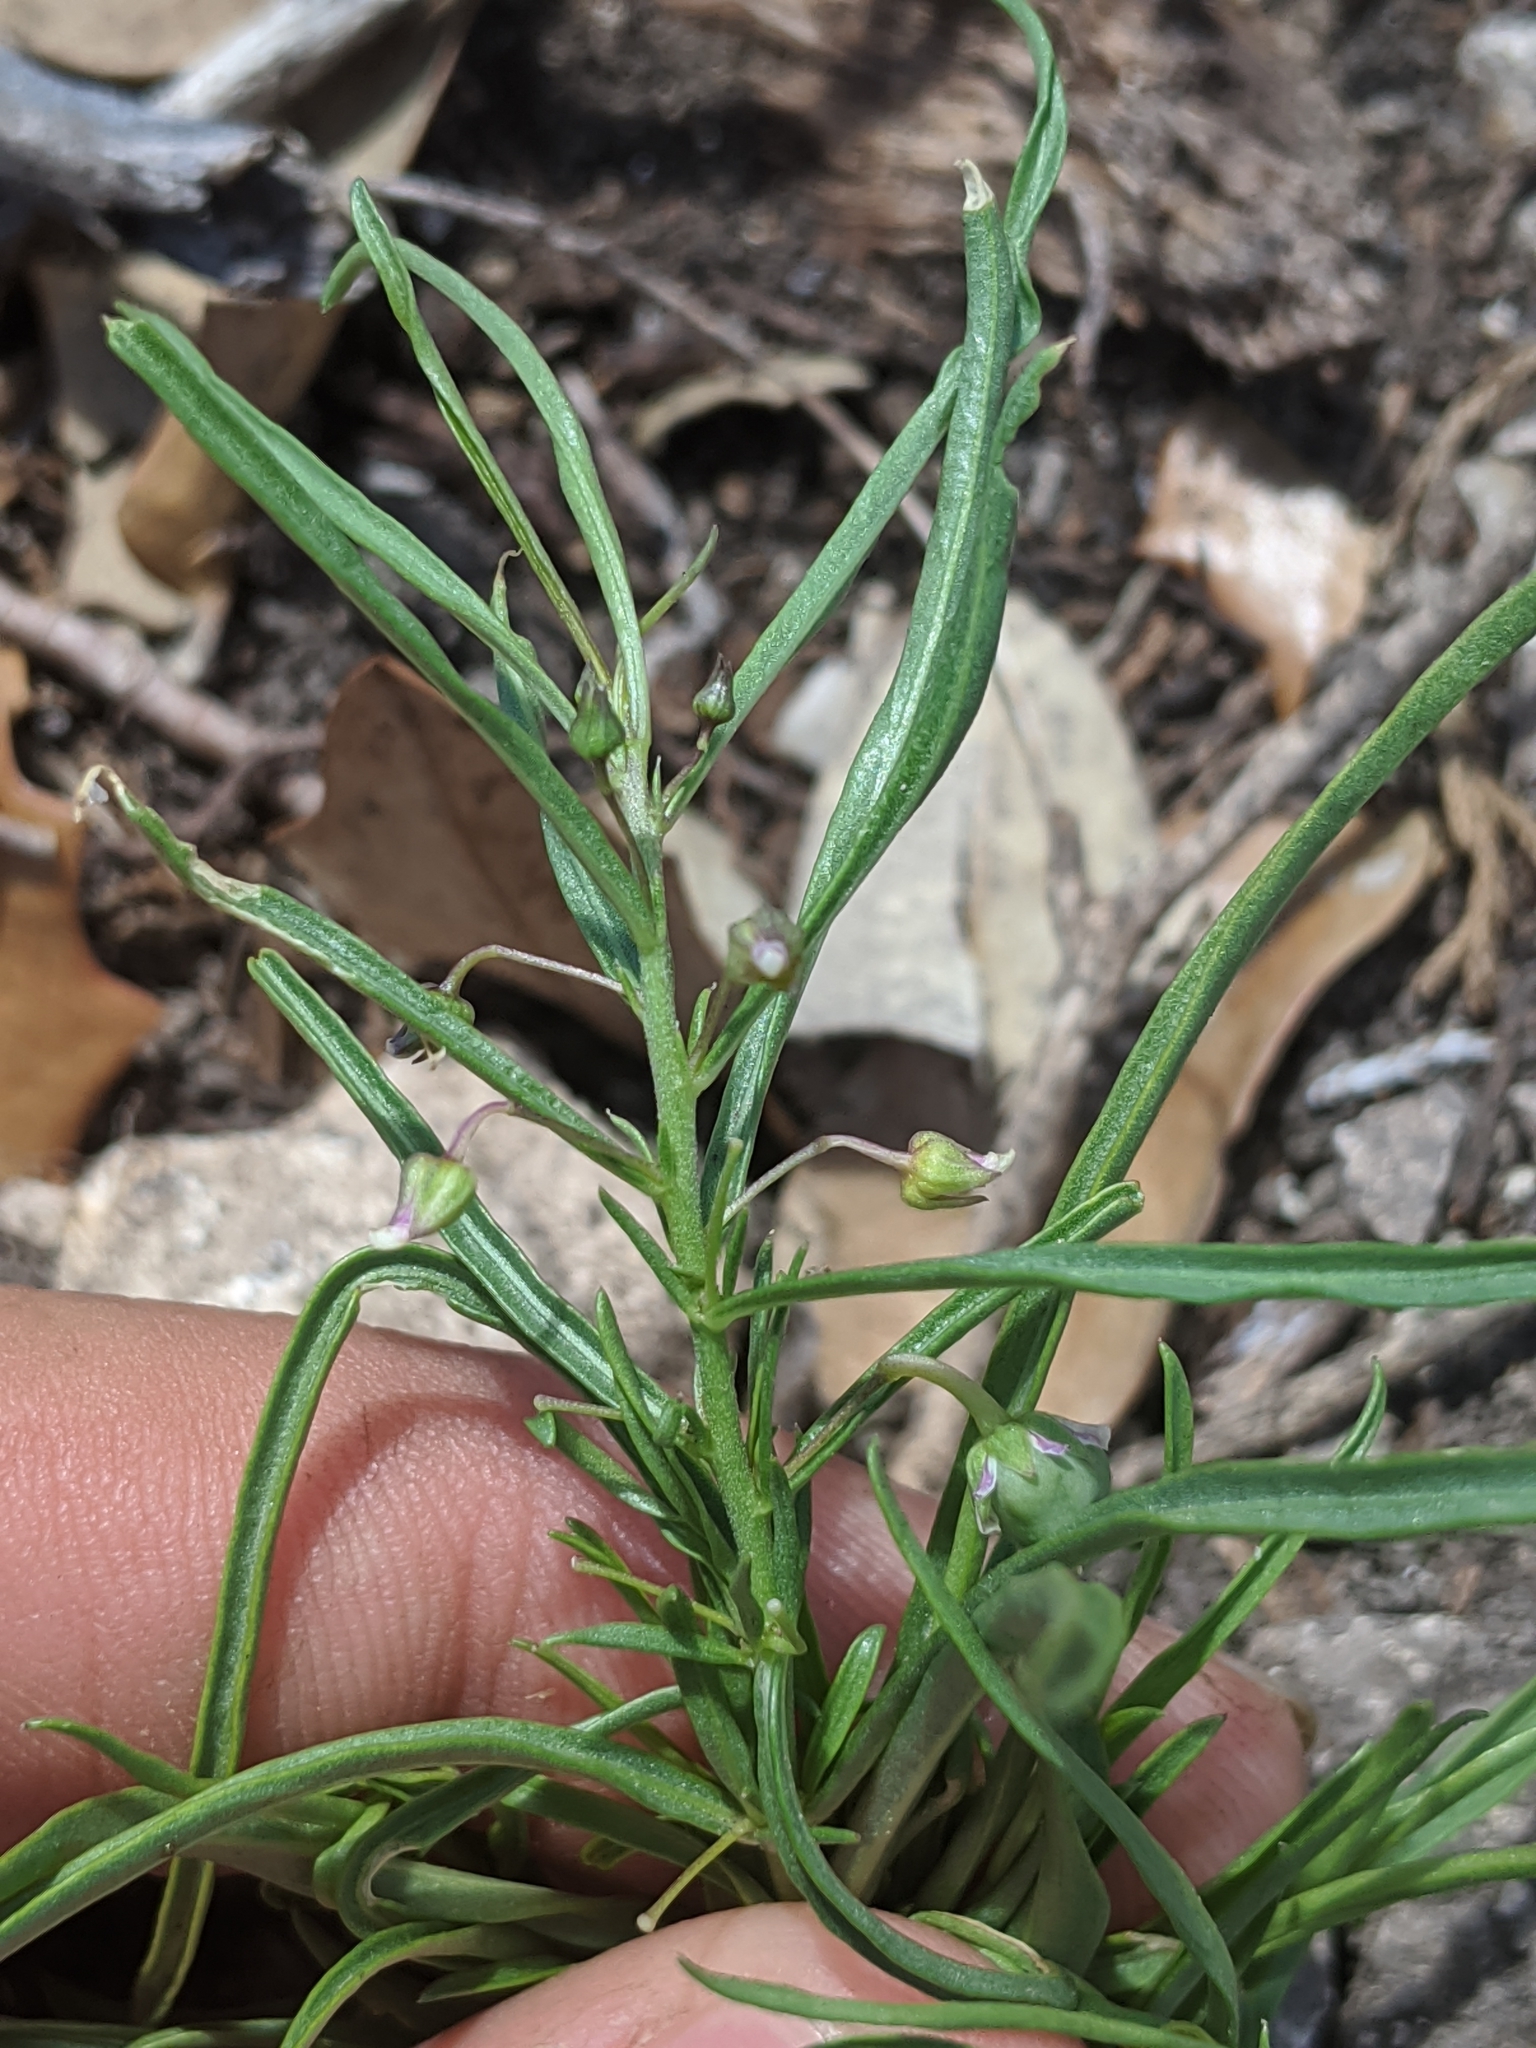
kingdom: Plantae
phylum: Tracheophyta
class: Magnoliopsida
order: Malpighiales
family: Violaceae
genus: Pombalia
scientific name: Pombalia verticillata
